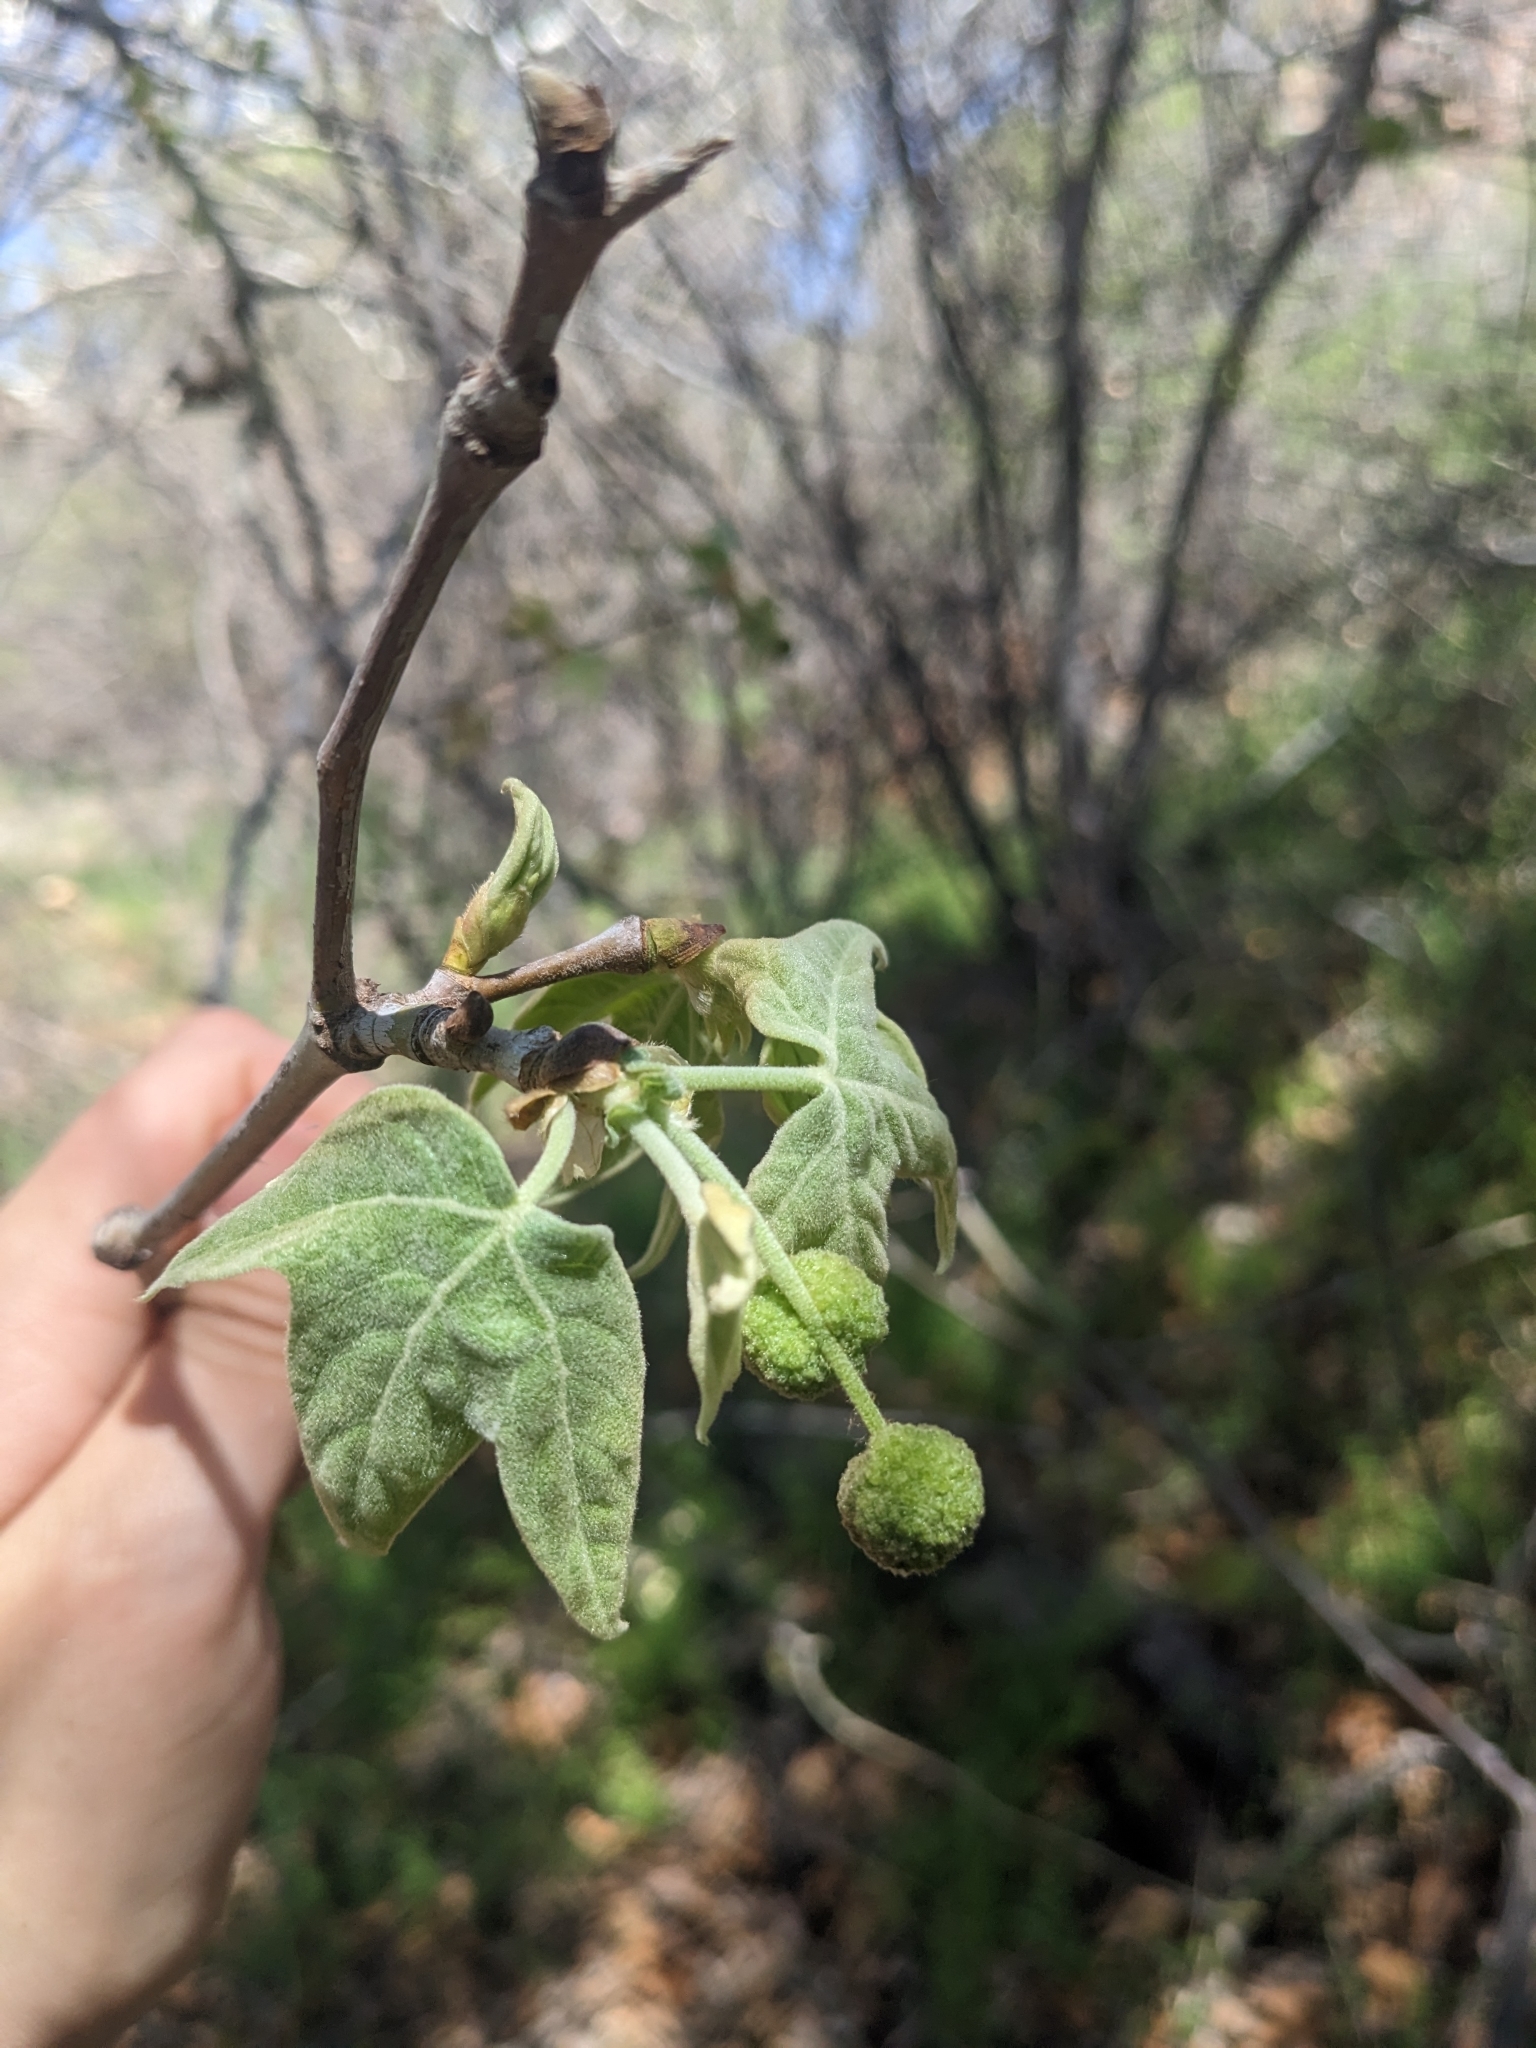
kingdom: Plantae
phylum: Tracheophyta
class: Magnoliopsida
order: Proteales
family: Platanaceae
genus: Platanus
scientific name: Platanus wrightii
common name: Arizona sycamore
